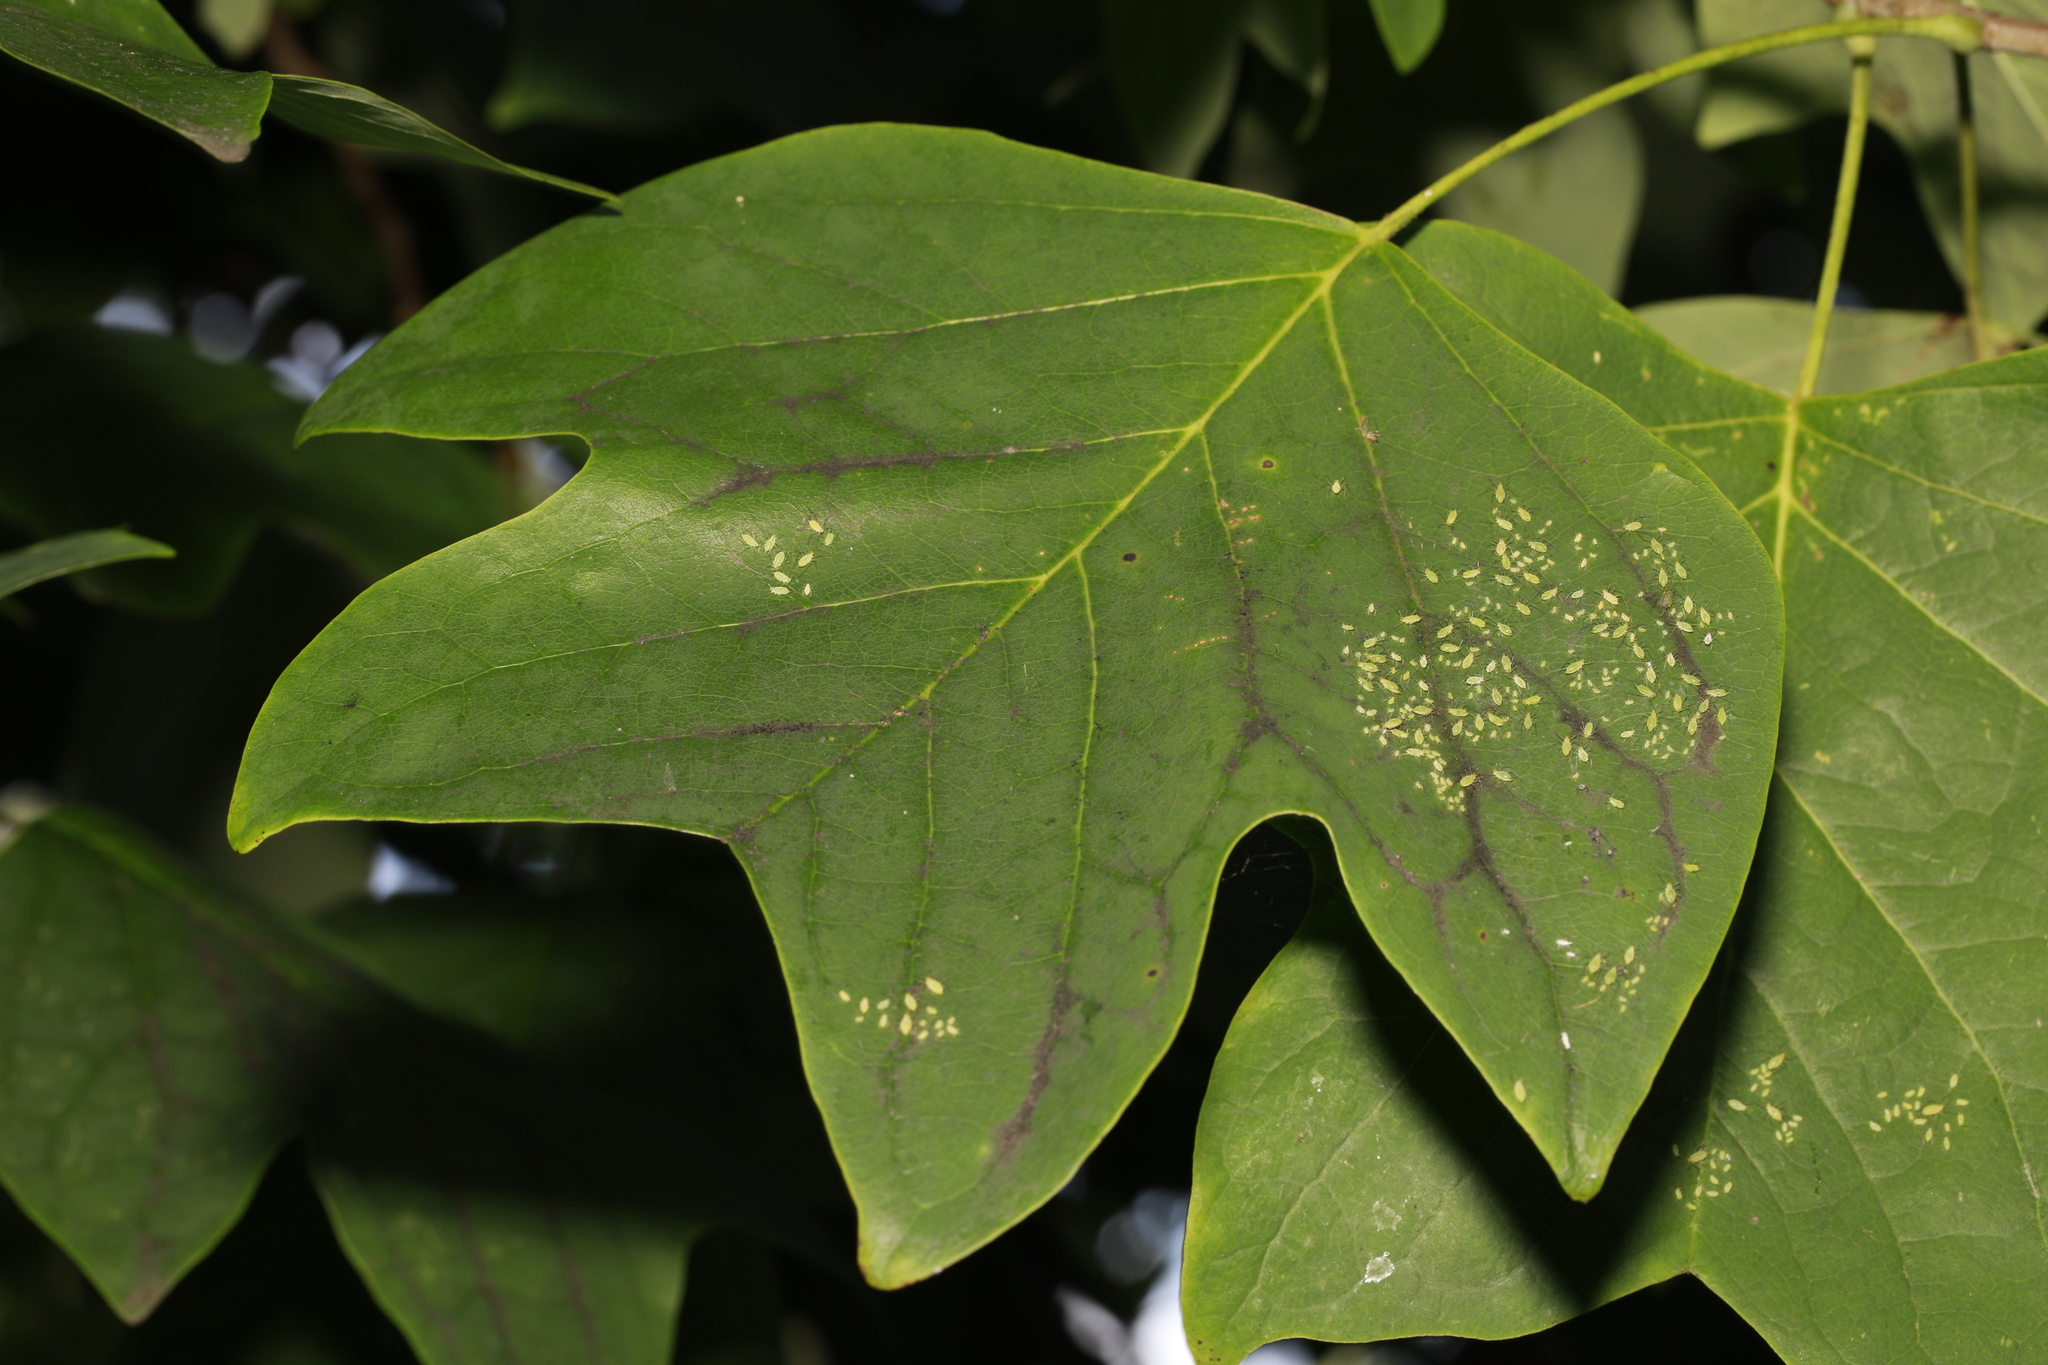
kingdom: Animalia
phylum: Arthropoda
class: Insecta
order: Hemiptera
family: Aphididae
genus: Illinoia
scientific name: Illinoia liriodendri
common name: Tuliptree aphid
